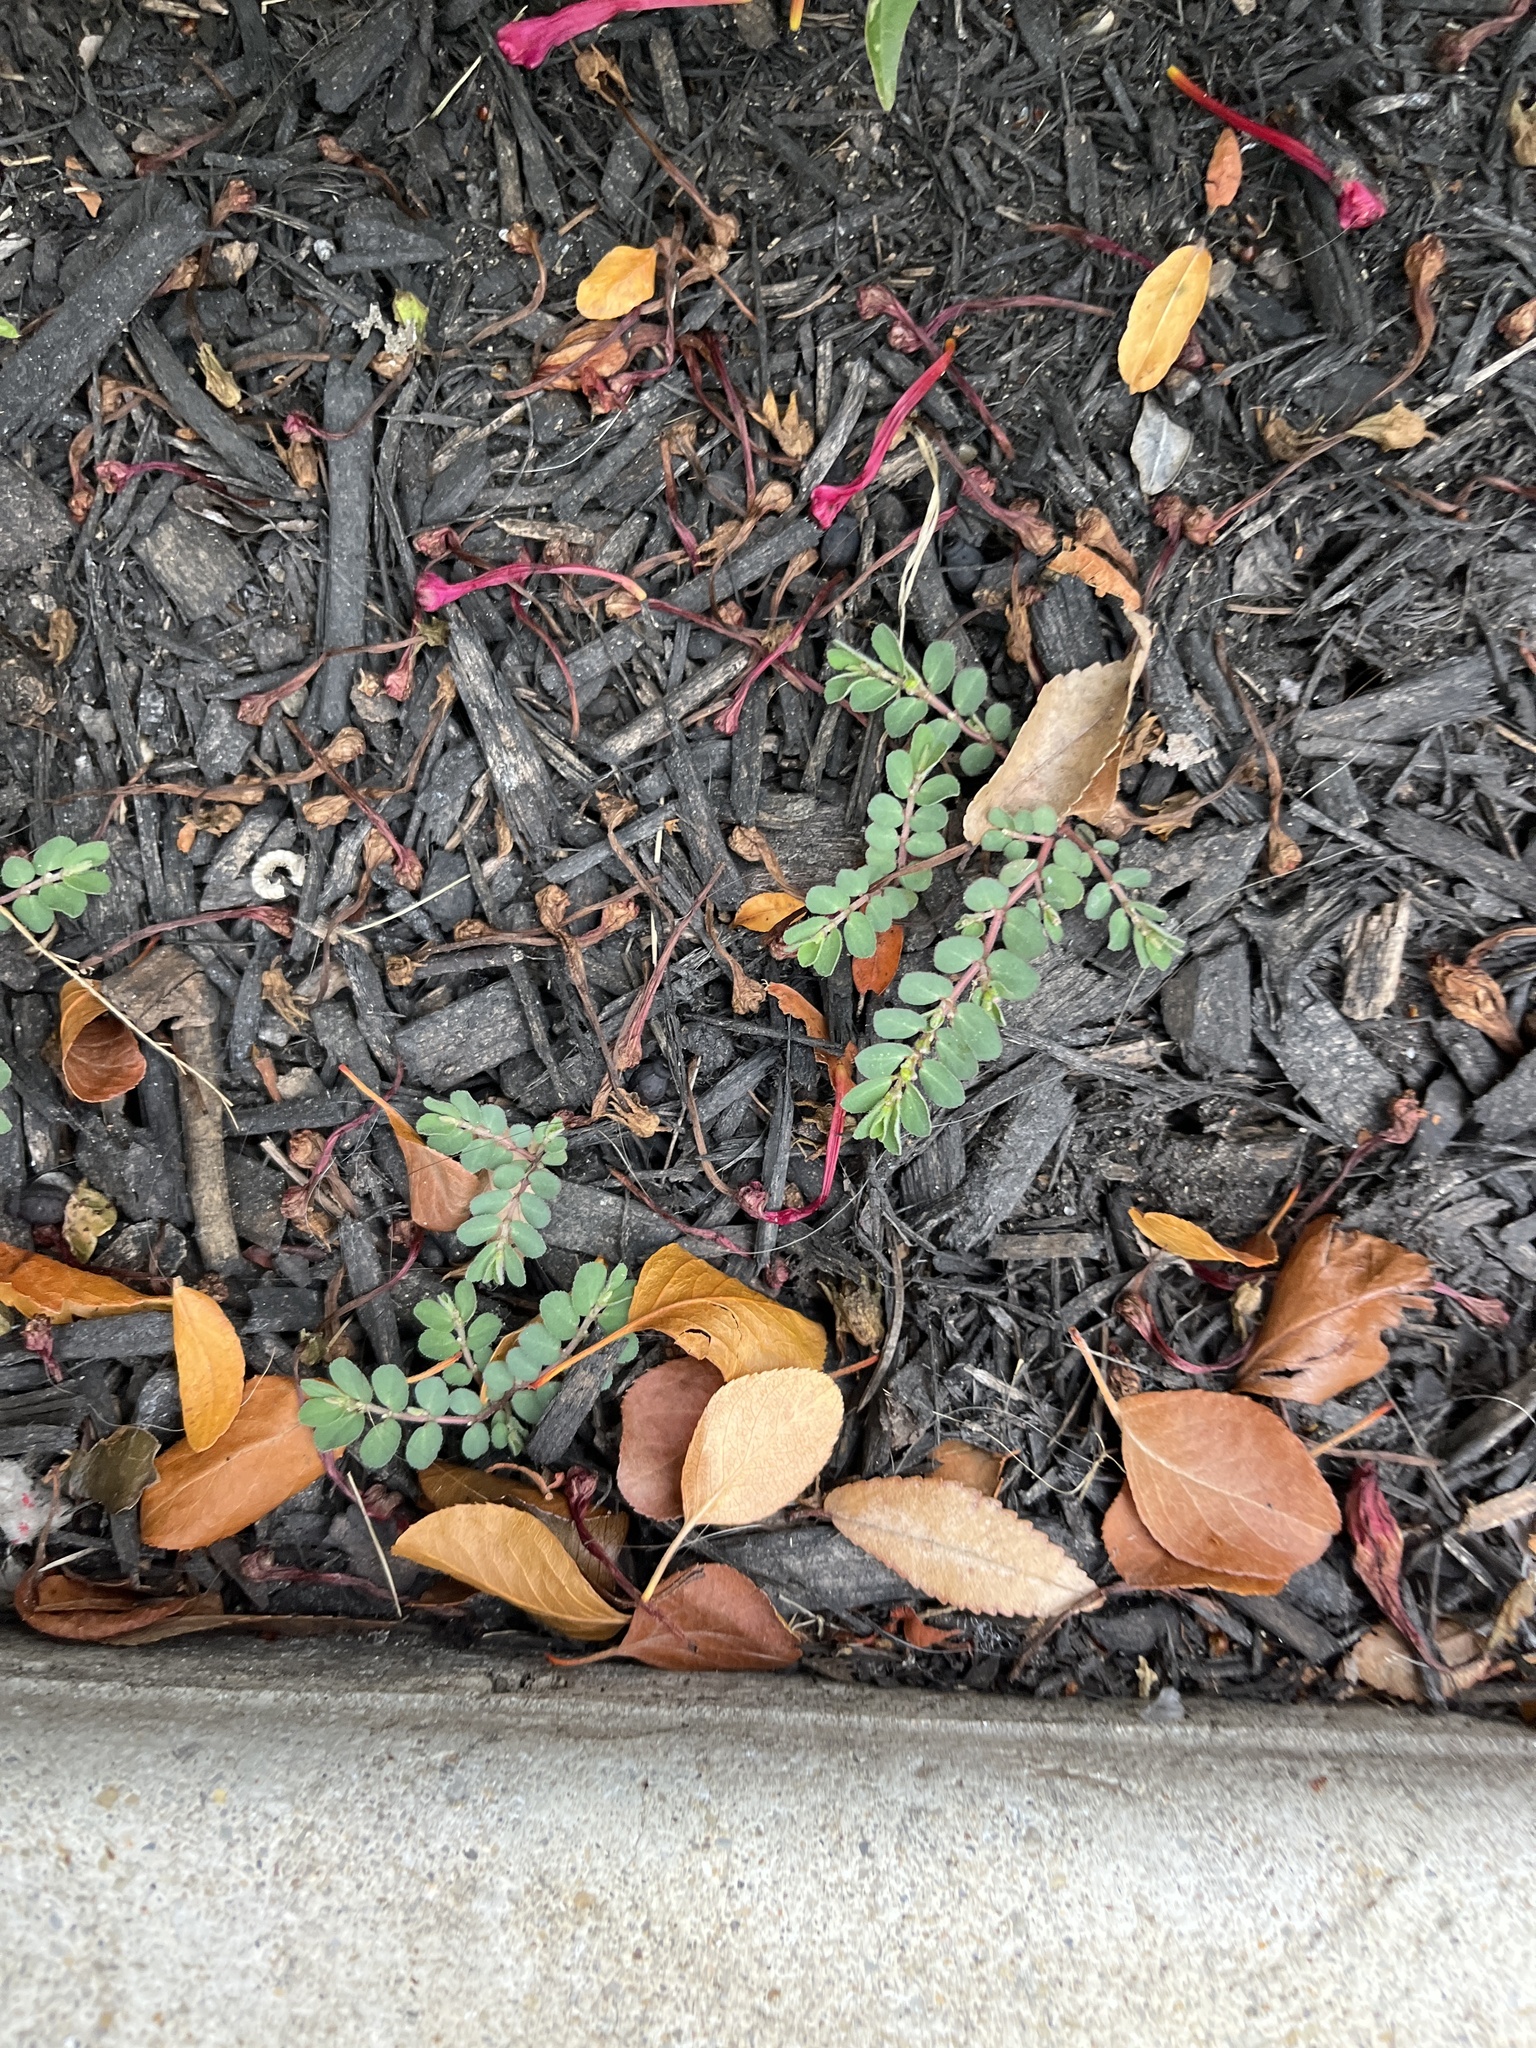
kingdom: Plantae
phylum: Tracheophyta
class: Magnoliopsida
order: Malpighiales
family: Euphorbiaceae
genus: Euphorbia
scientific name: Euphorbia prostrata
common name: Prostrate sandmat
